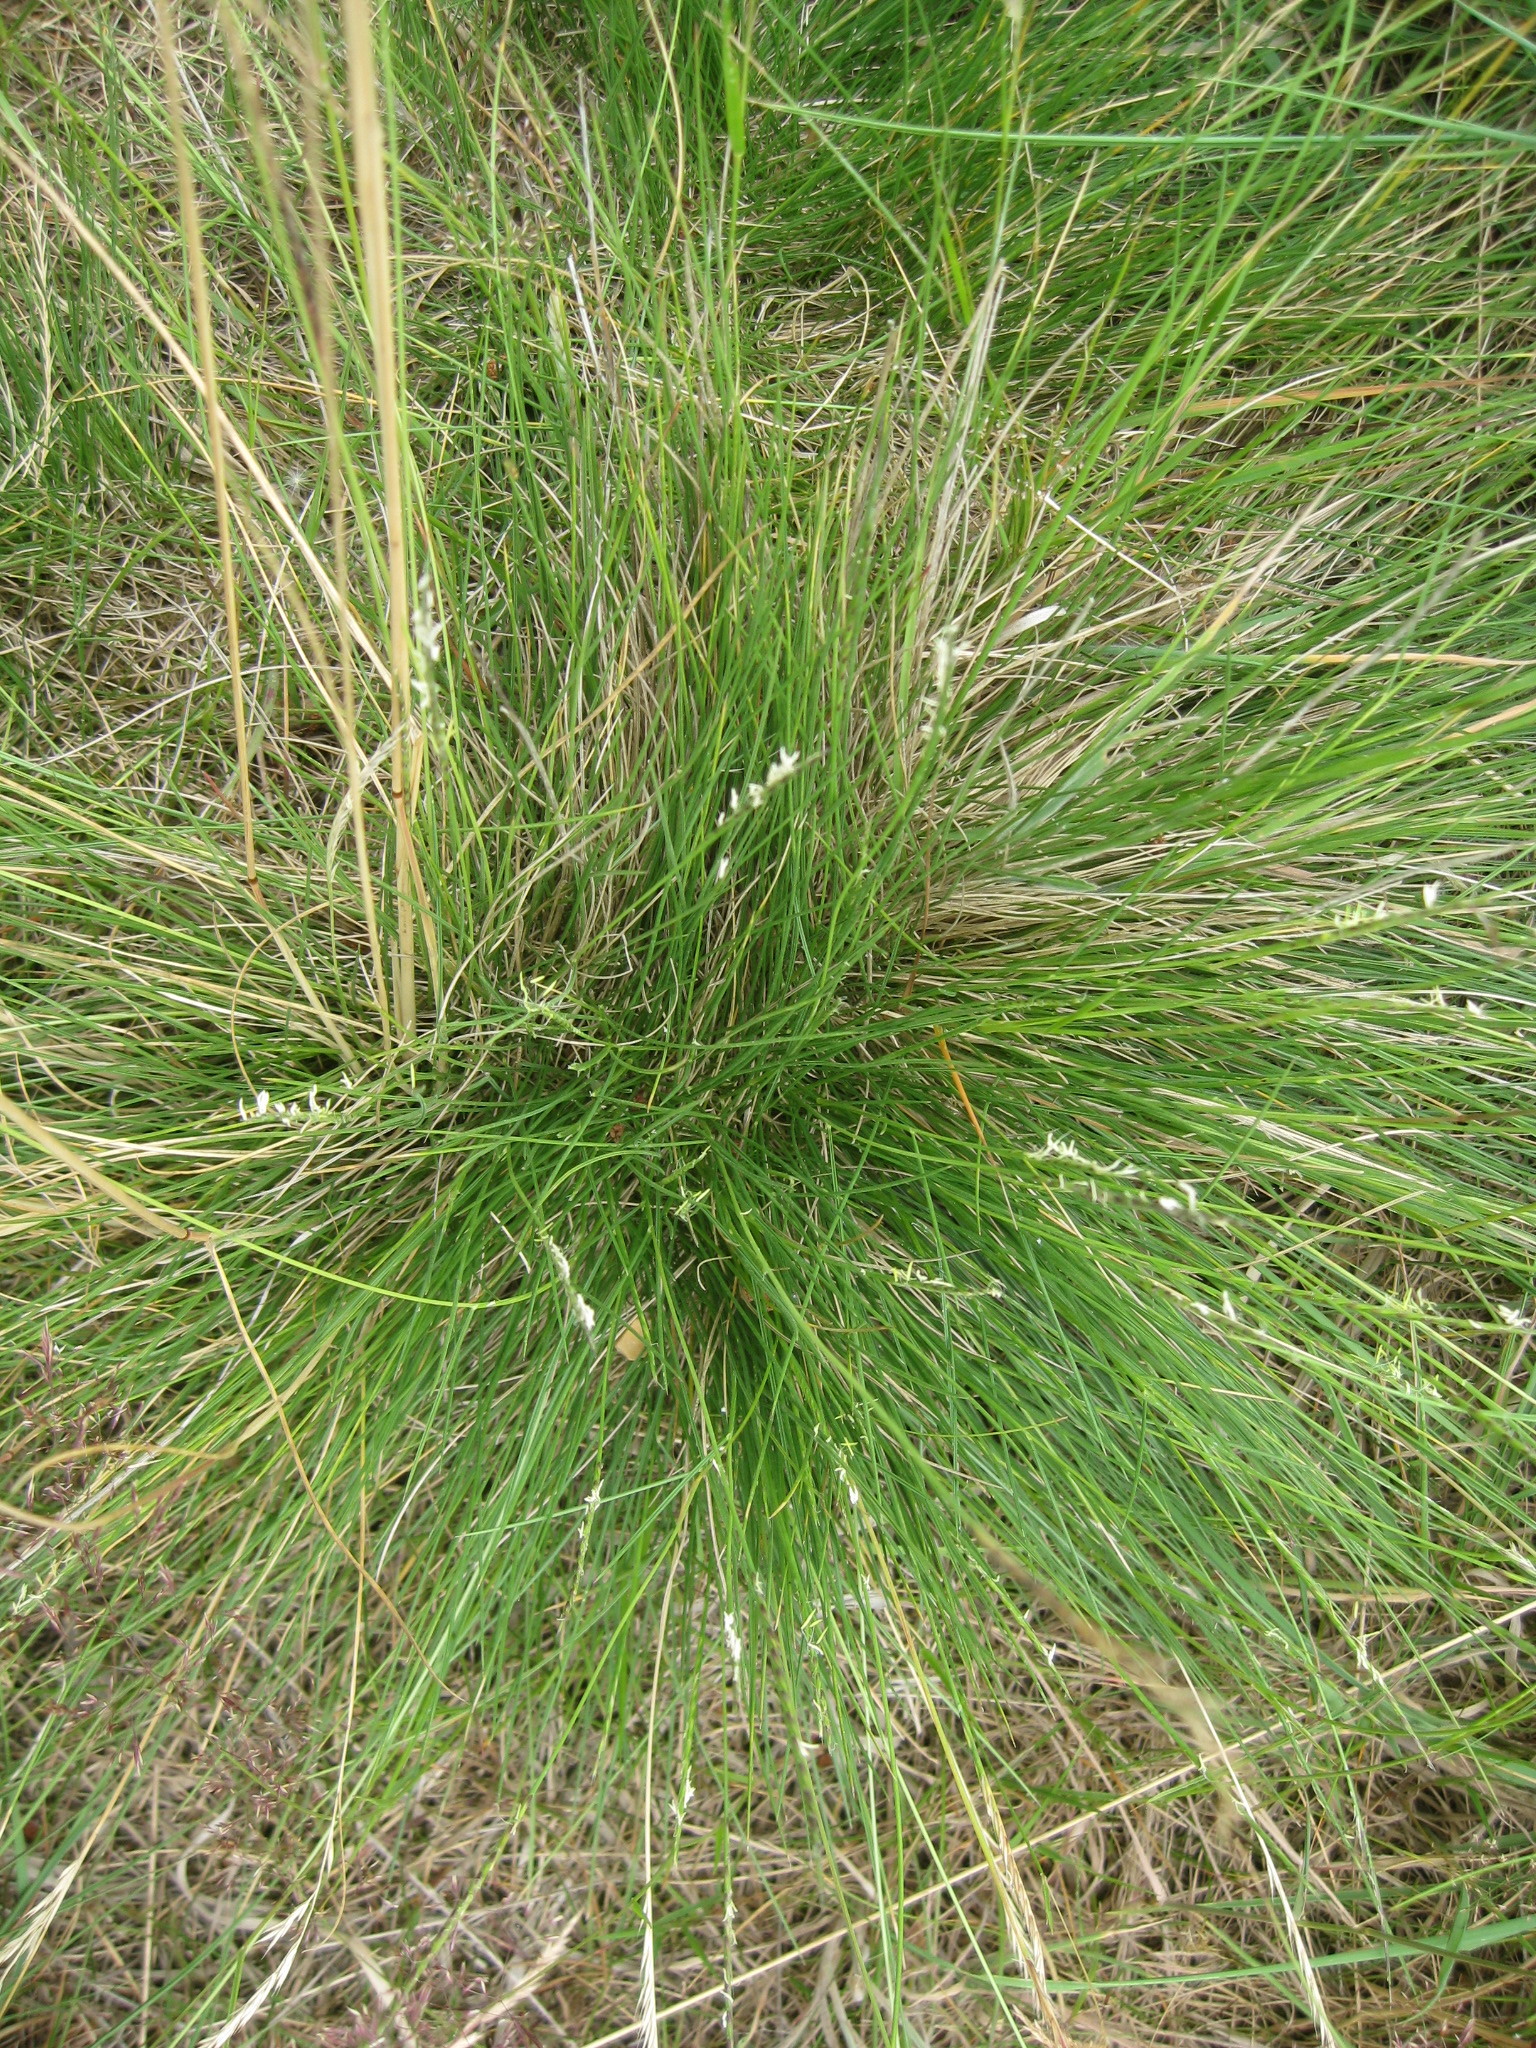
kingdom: Plantae
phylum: Tracheophyta
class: Liliopsida
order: Poales
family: Poaceae
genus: Nardus
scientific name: Nardus stricta
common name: Mat-grass
